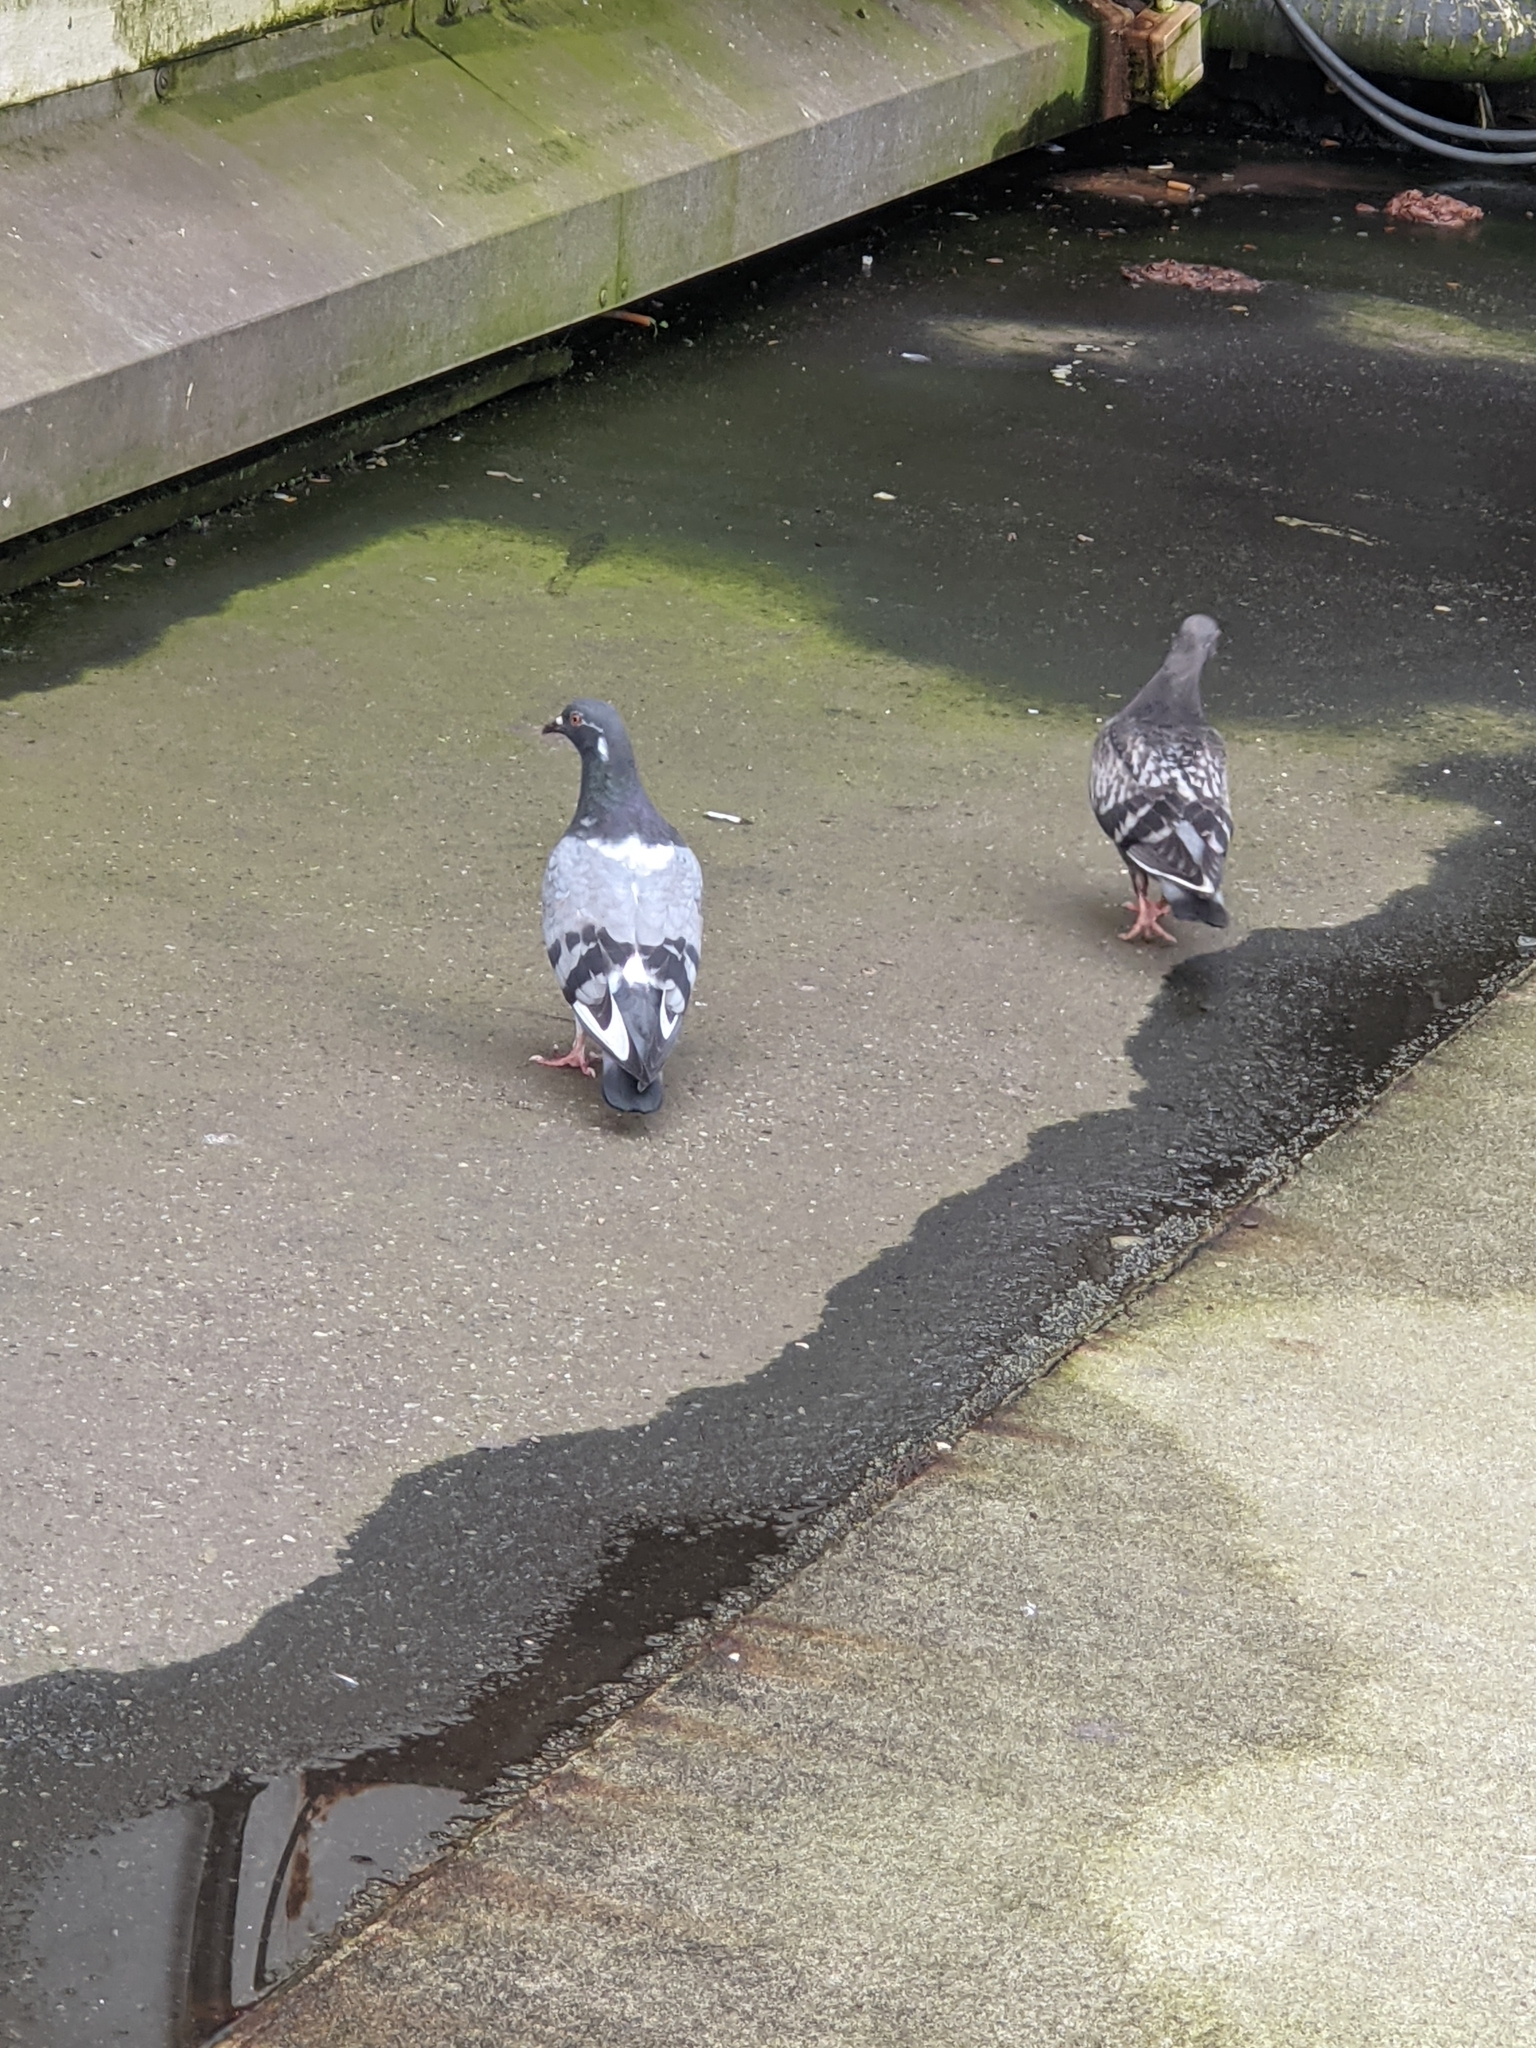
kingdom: Animalia
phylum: Chordata
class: Aves
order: Columbiformes
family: Columbidae
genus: Columba
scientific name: Columba livia
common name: Rock pigeon
